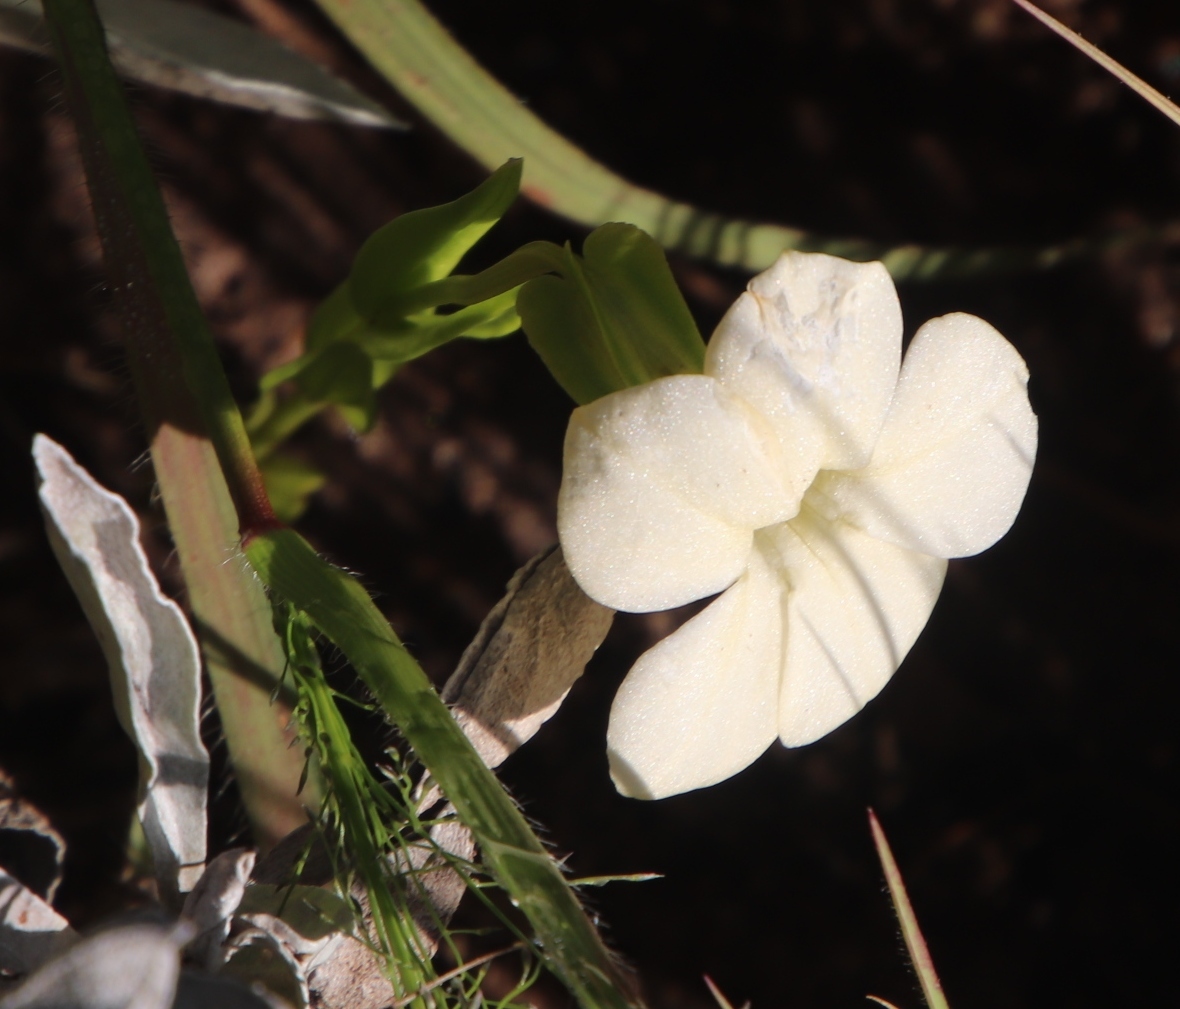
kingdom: Plantae
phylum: Tracheophyta
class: Magnoliopsida
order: Gentianales
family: Gentianaceae
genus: Exochaenium
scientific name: Exochaenium grande
